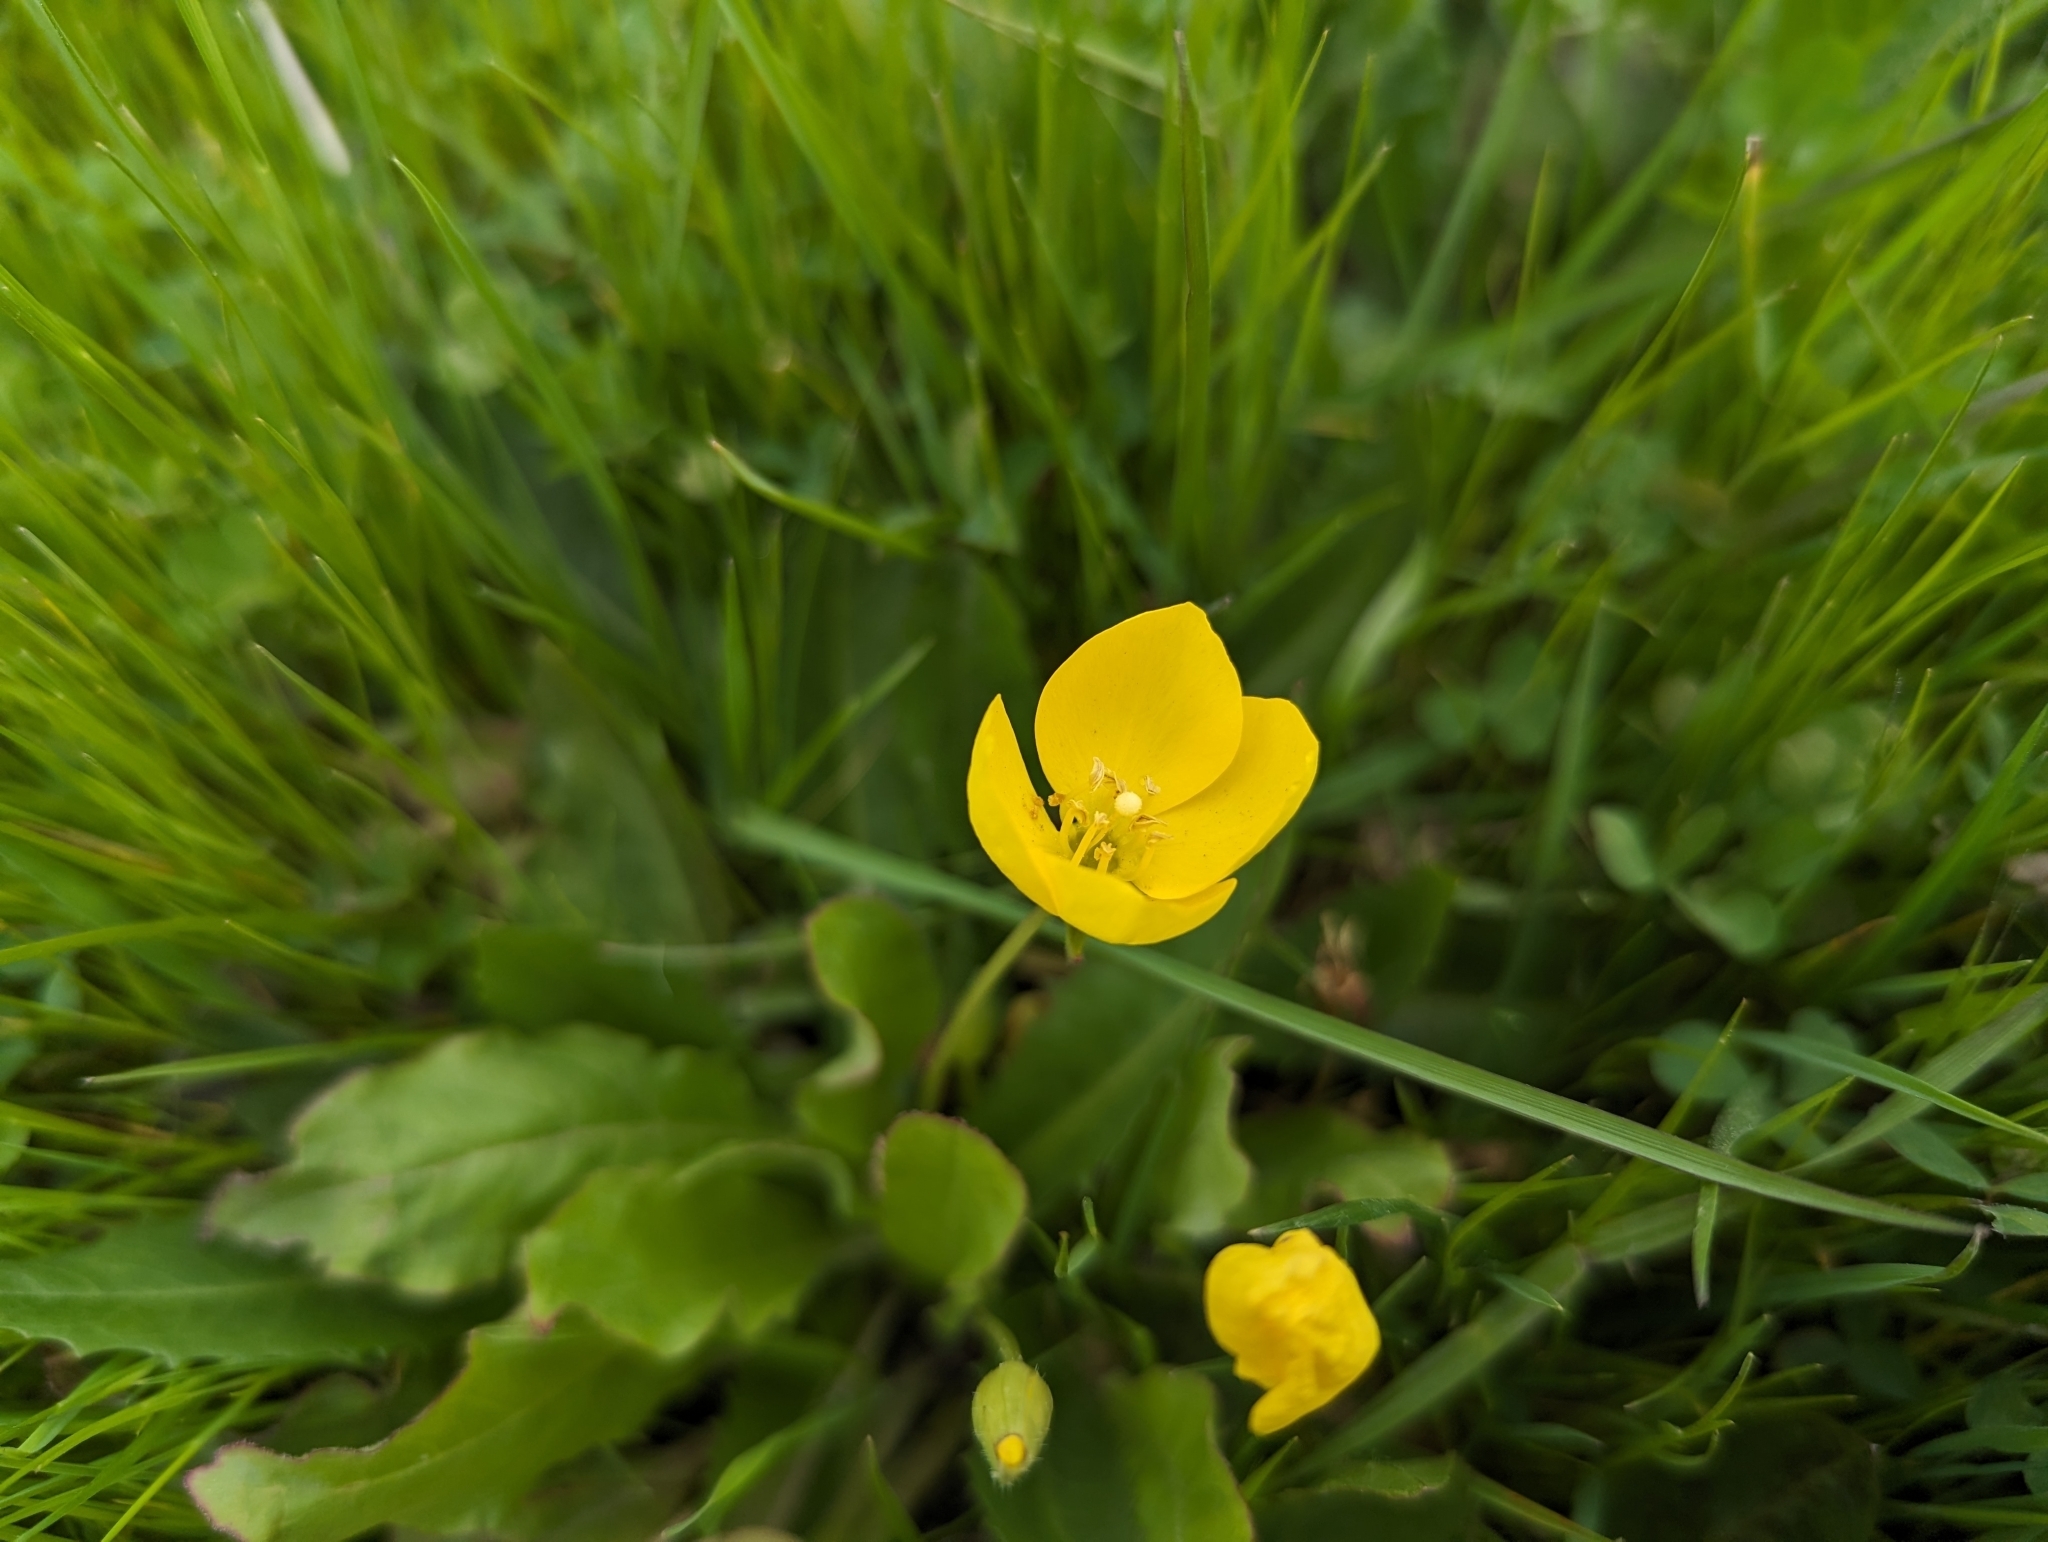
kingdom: Plantae
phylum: Tracheophyta
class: Magnoliopsida
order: Myrtales
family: Onagraceae
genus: Taraxia
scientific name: Taraxia ovata
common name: Goldeneggs
